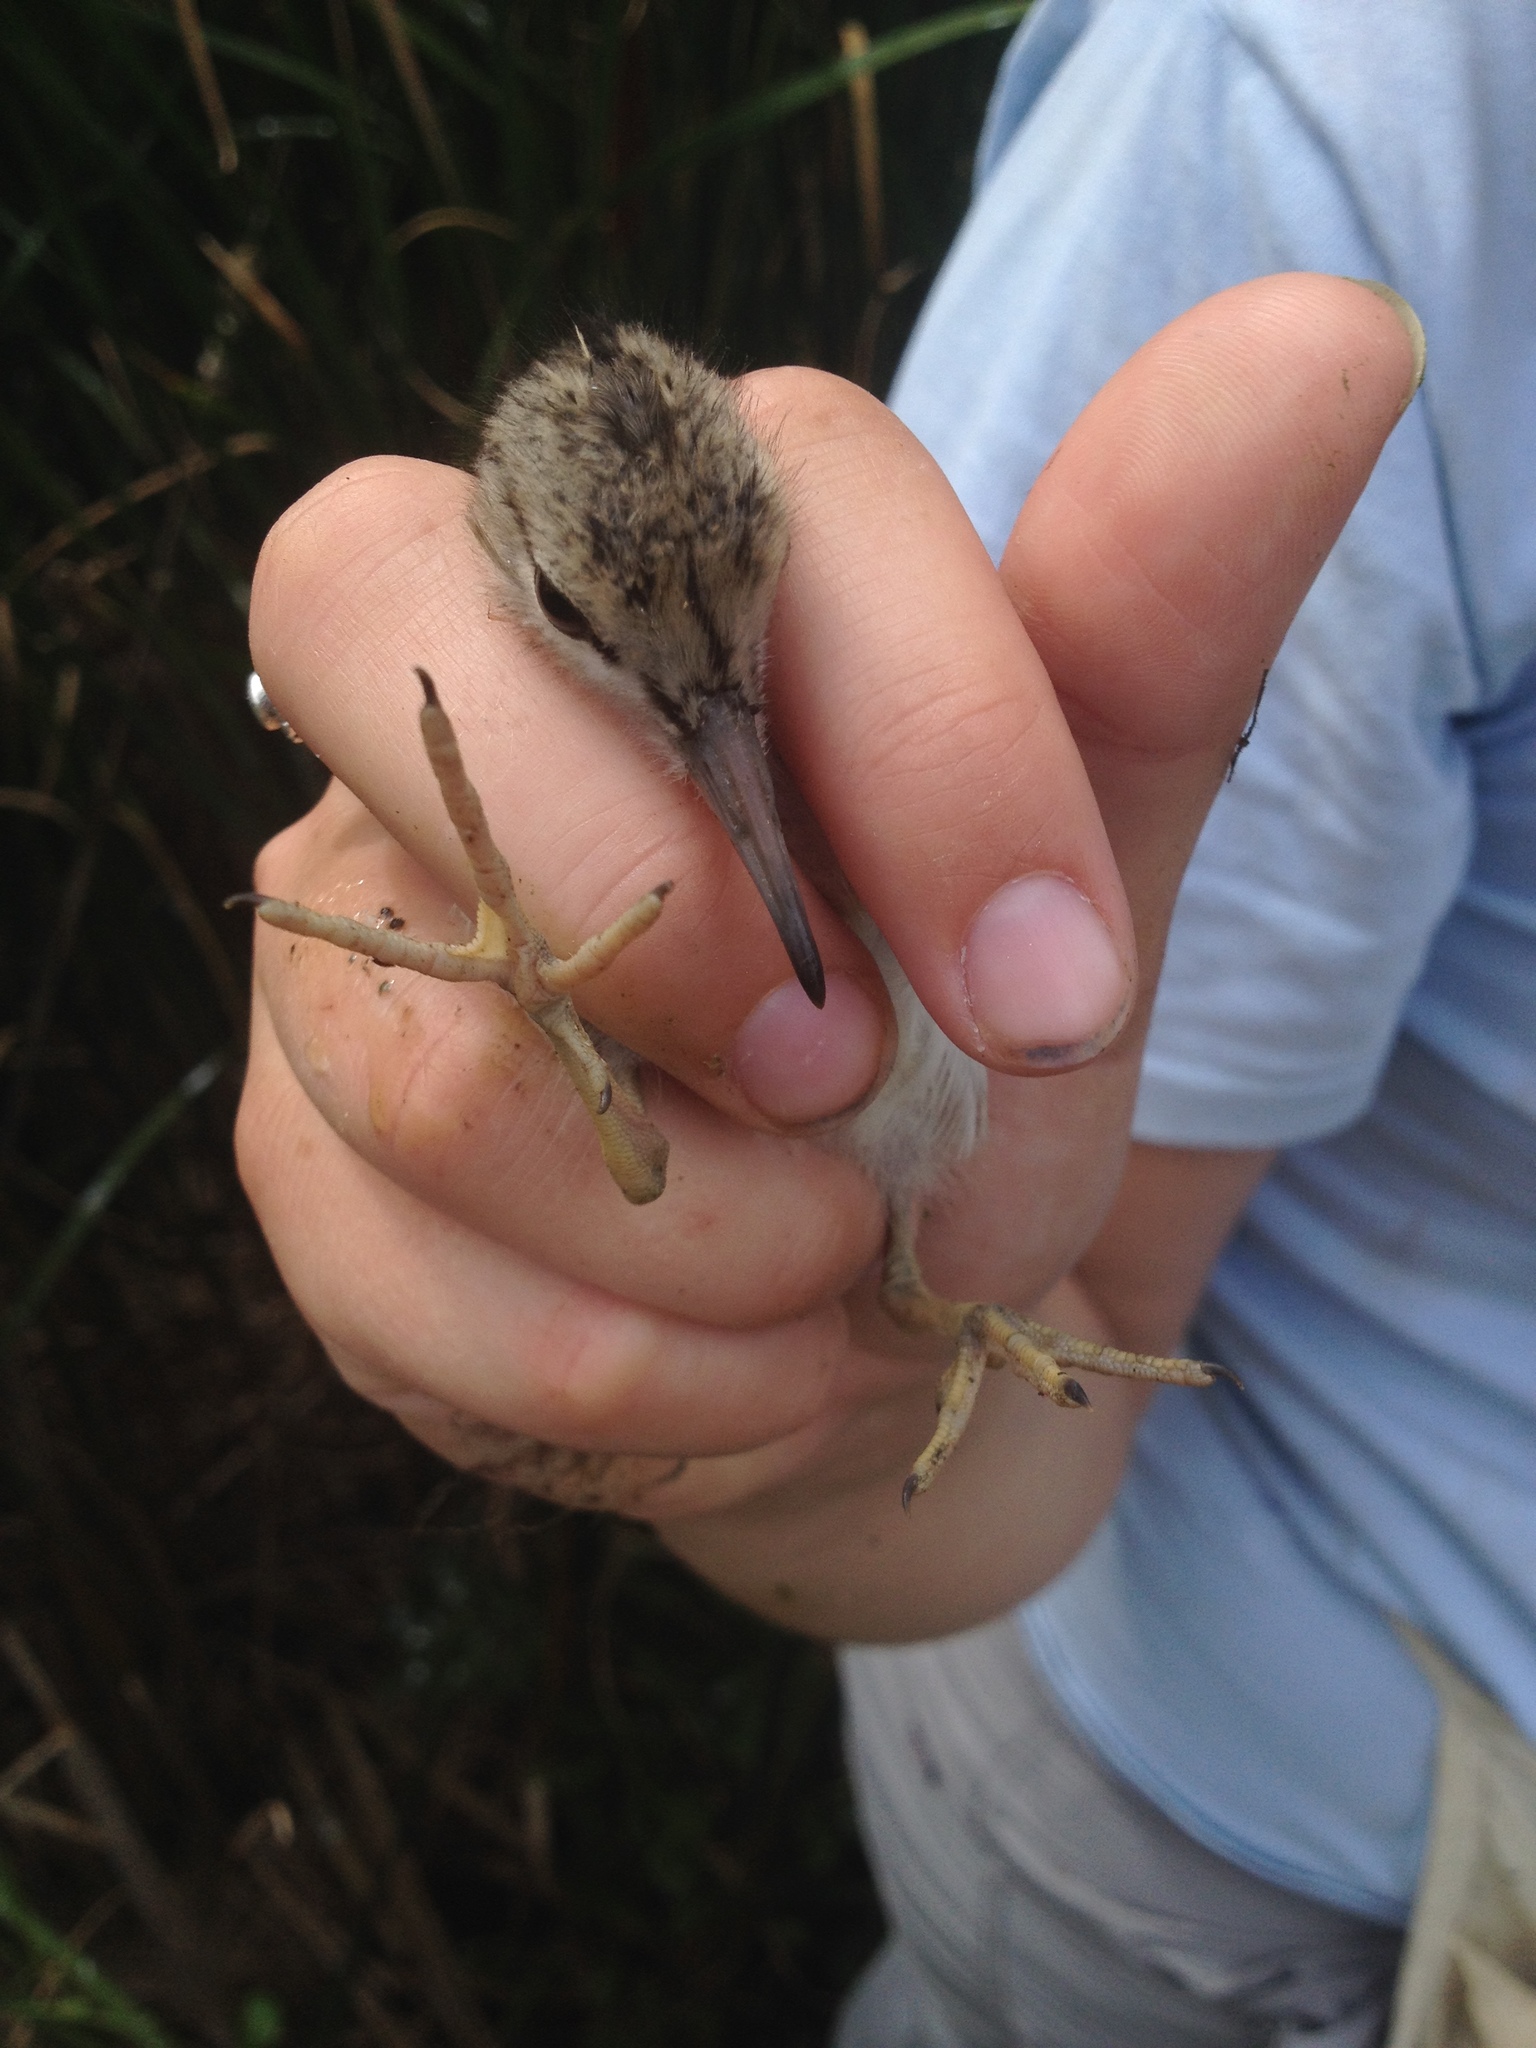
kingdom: Animalia
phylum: Chordata
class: Aves
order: Charadriiformes
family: Scolopacidae
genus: Actitis
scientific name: Actitis macularius
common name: Spotted sandpiper
